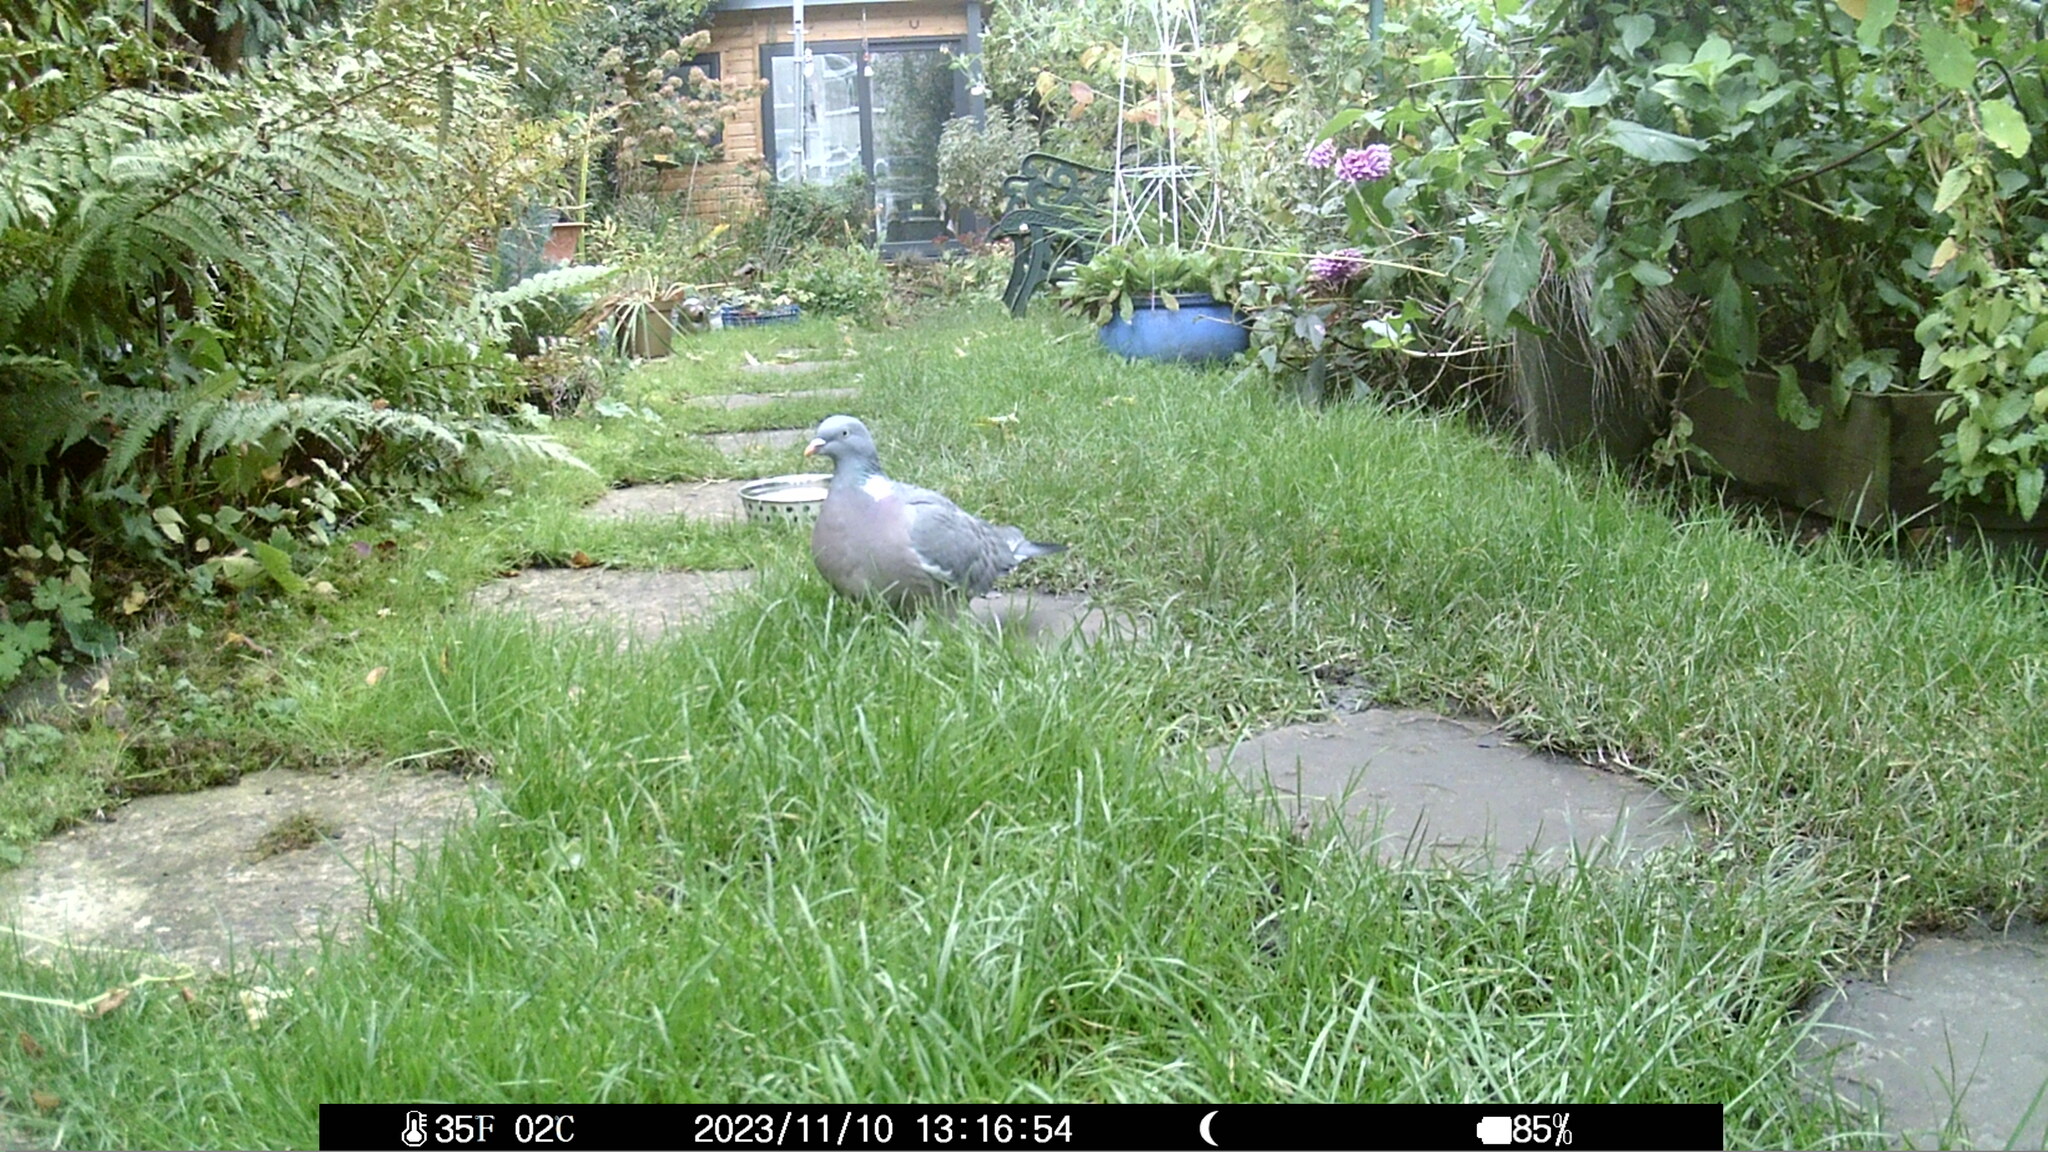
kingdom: Animalia
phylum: Chordata
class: Aves
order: Columbiformes
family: Columbidae
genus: Columba
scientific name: Columba palumbus
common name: Common wood pigeon
